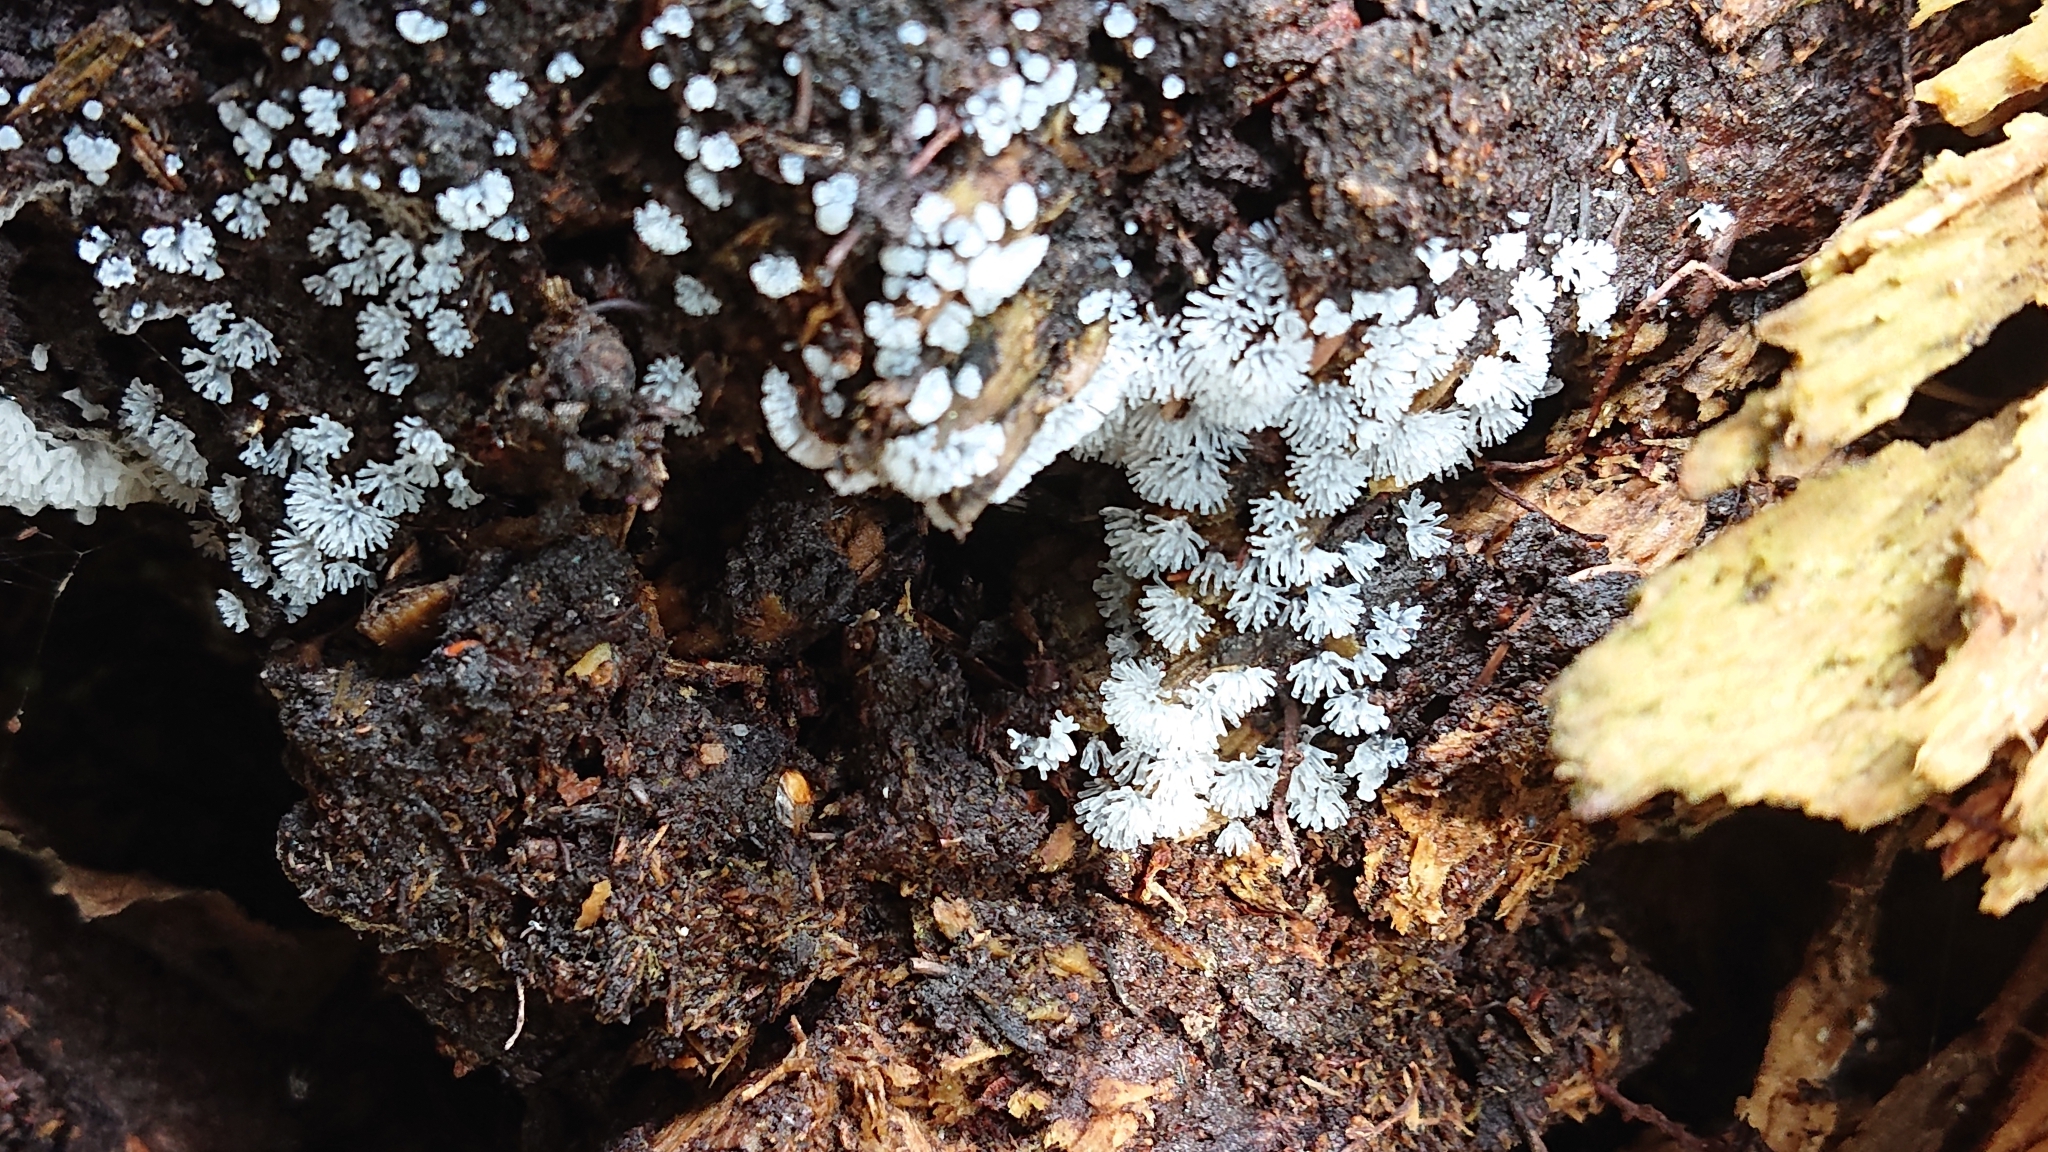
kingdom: Protozoa
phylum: Mycetozoa
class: Protosteliomycetes
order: Ceratiomyxales
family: Ceratiomyxaceae
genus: Ceratiomyxa
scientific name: Ceratiomyxa fruticulosa
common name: Honeycomb coral slime mold
